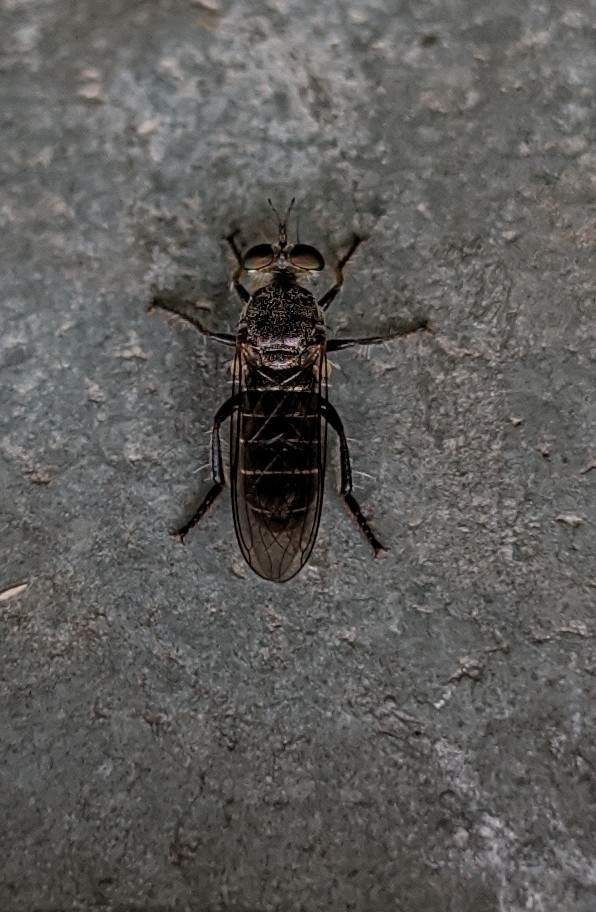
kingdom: Animalia
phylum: Arthropoda
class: Insecta
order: Diptera
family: Asilidae
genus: Atomosia
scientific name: Atomosia puella
